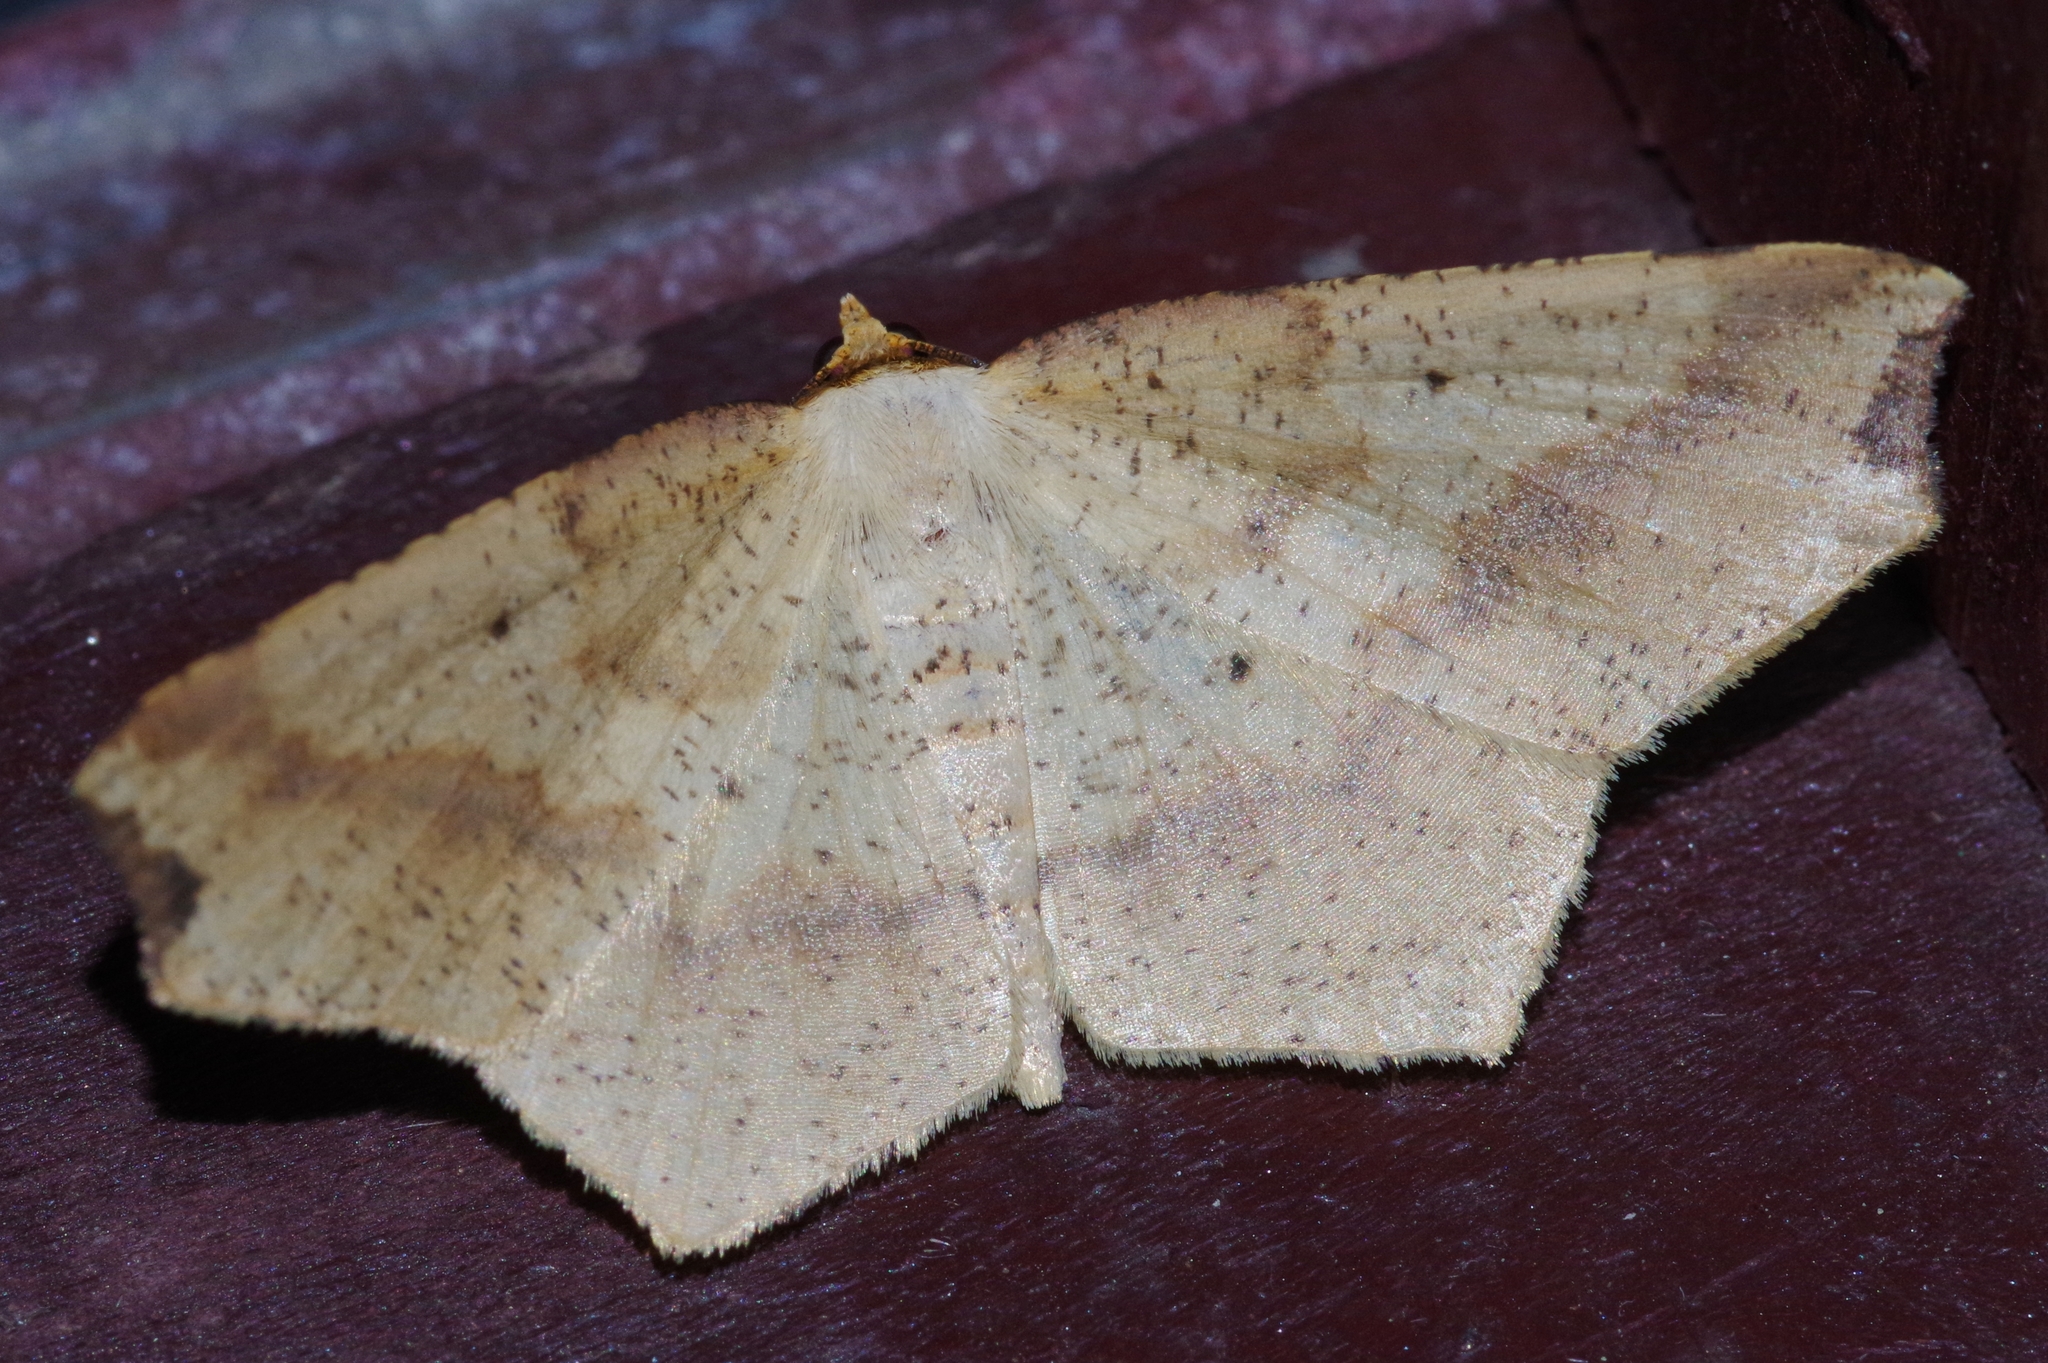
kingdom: Animalia
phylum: Arthropoda
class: Insecta
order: Lepidoptera
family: Geometridae
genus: Pareclipsis
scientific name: Pareclipsis gracilis
